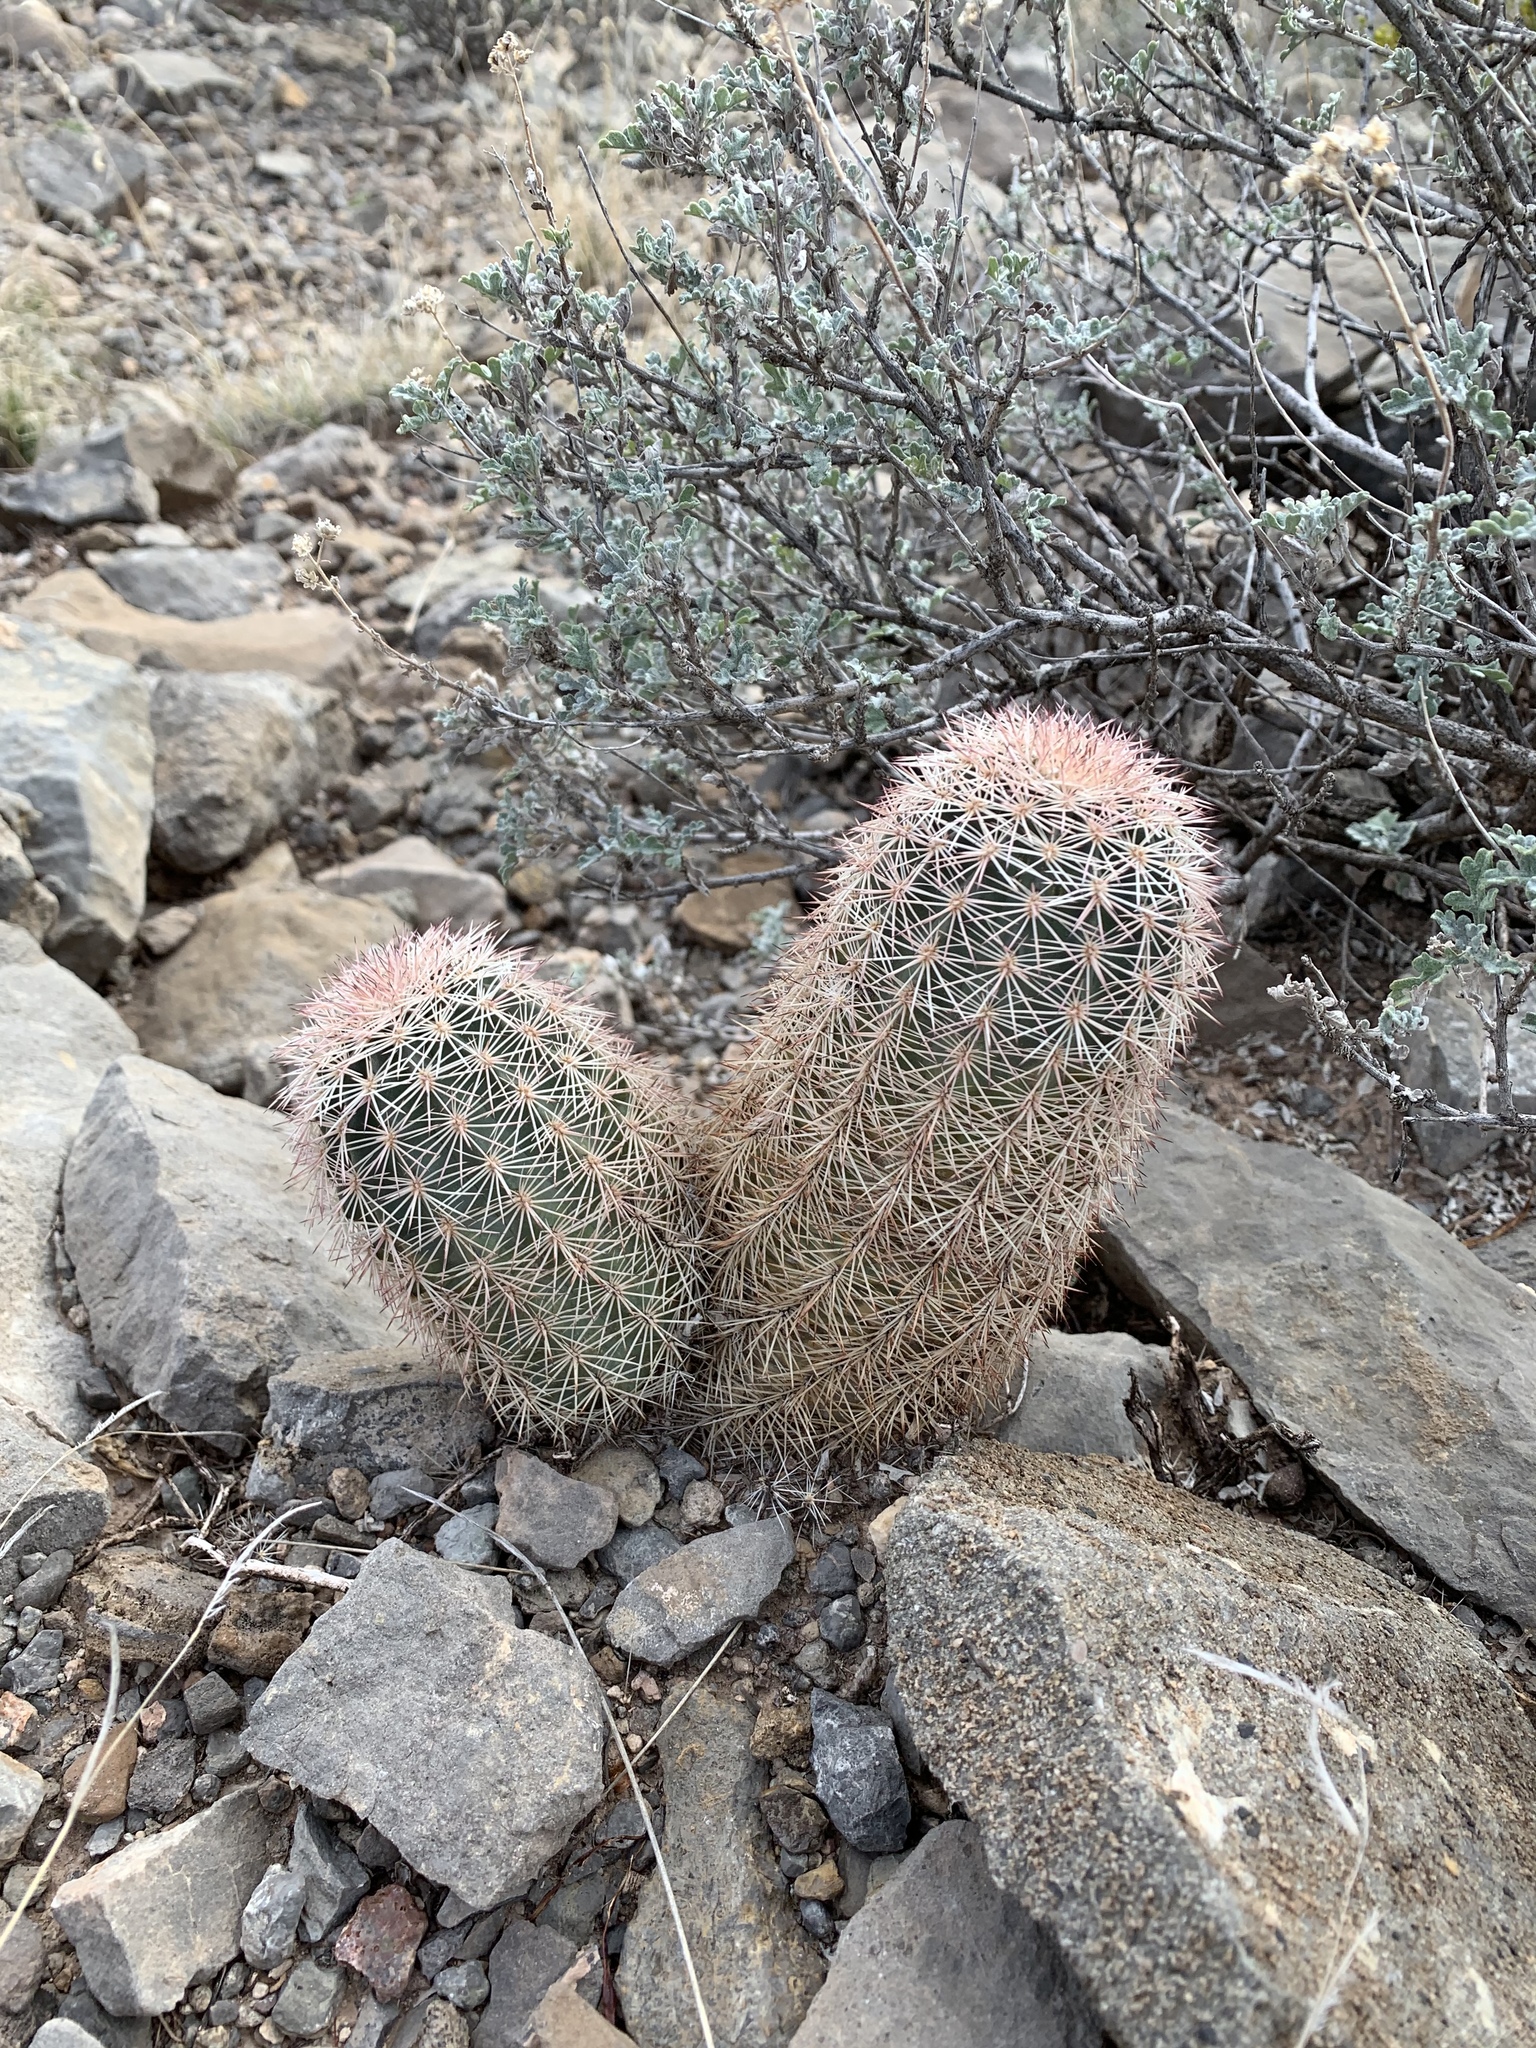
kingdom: Plantae
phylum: Tracheophyta
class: Magnoliopsida
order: Caryophyllales
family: Cactaceae
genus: Echinocereus
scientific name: Echinocereus dasyacanthus
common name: Spiny hedgehog cactus
